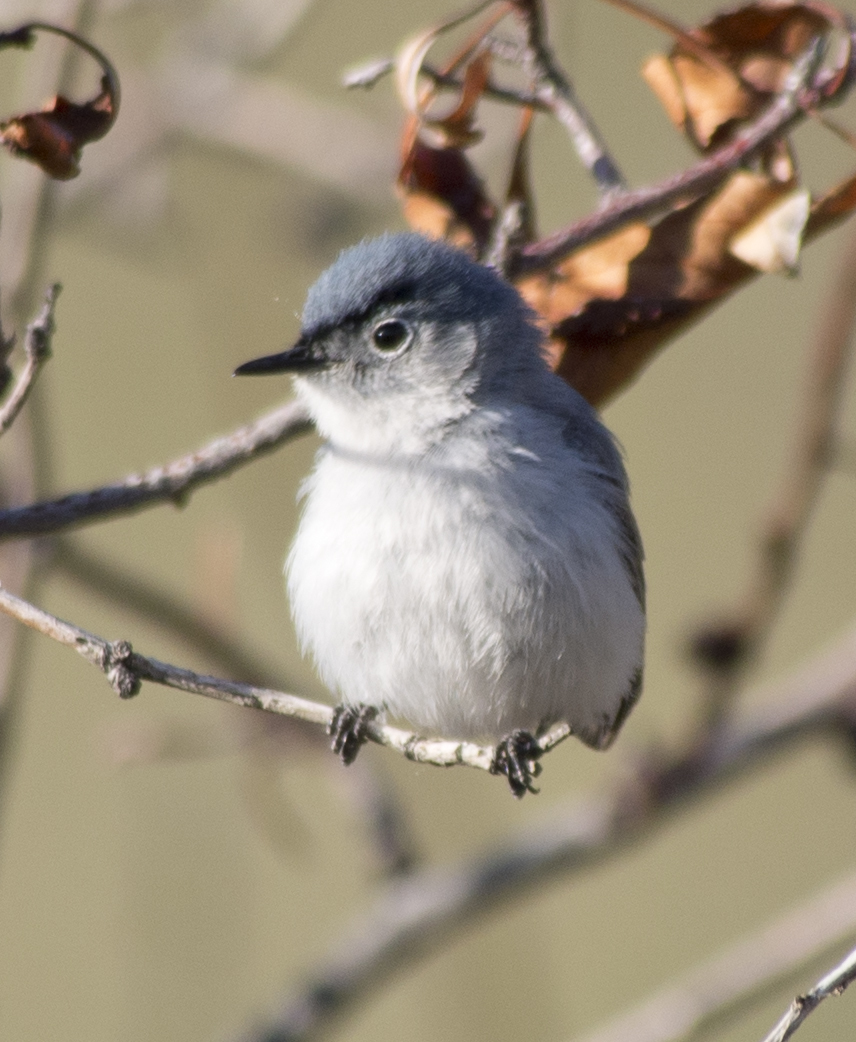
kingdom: Animalia
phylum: Chordata
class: Aves
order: Passeriformes
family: Polioptilidae
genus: Polioptila
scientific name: Polioptila caerulea
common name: Blue-gray gnatcatcher
